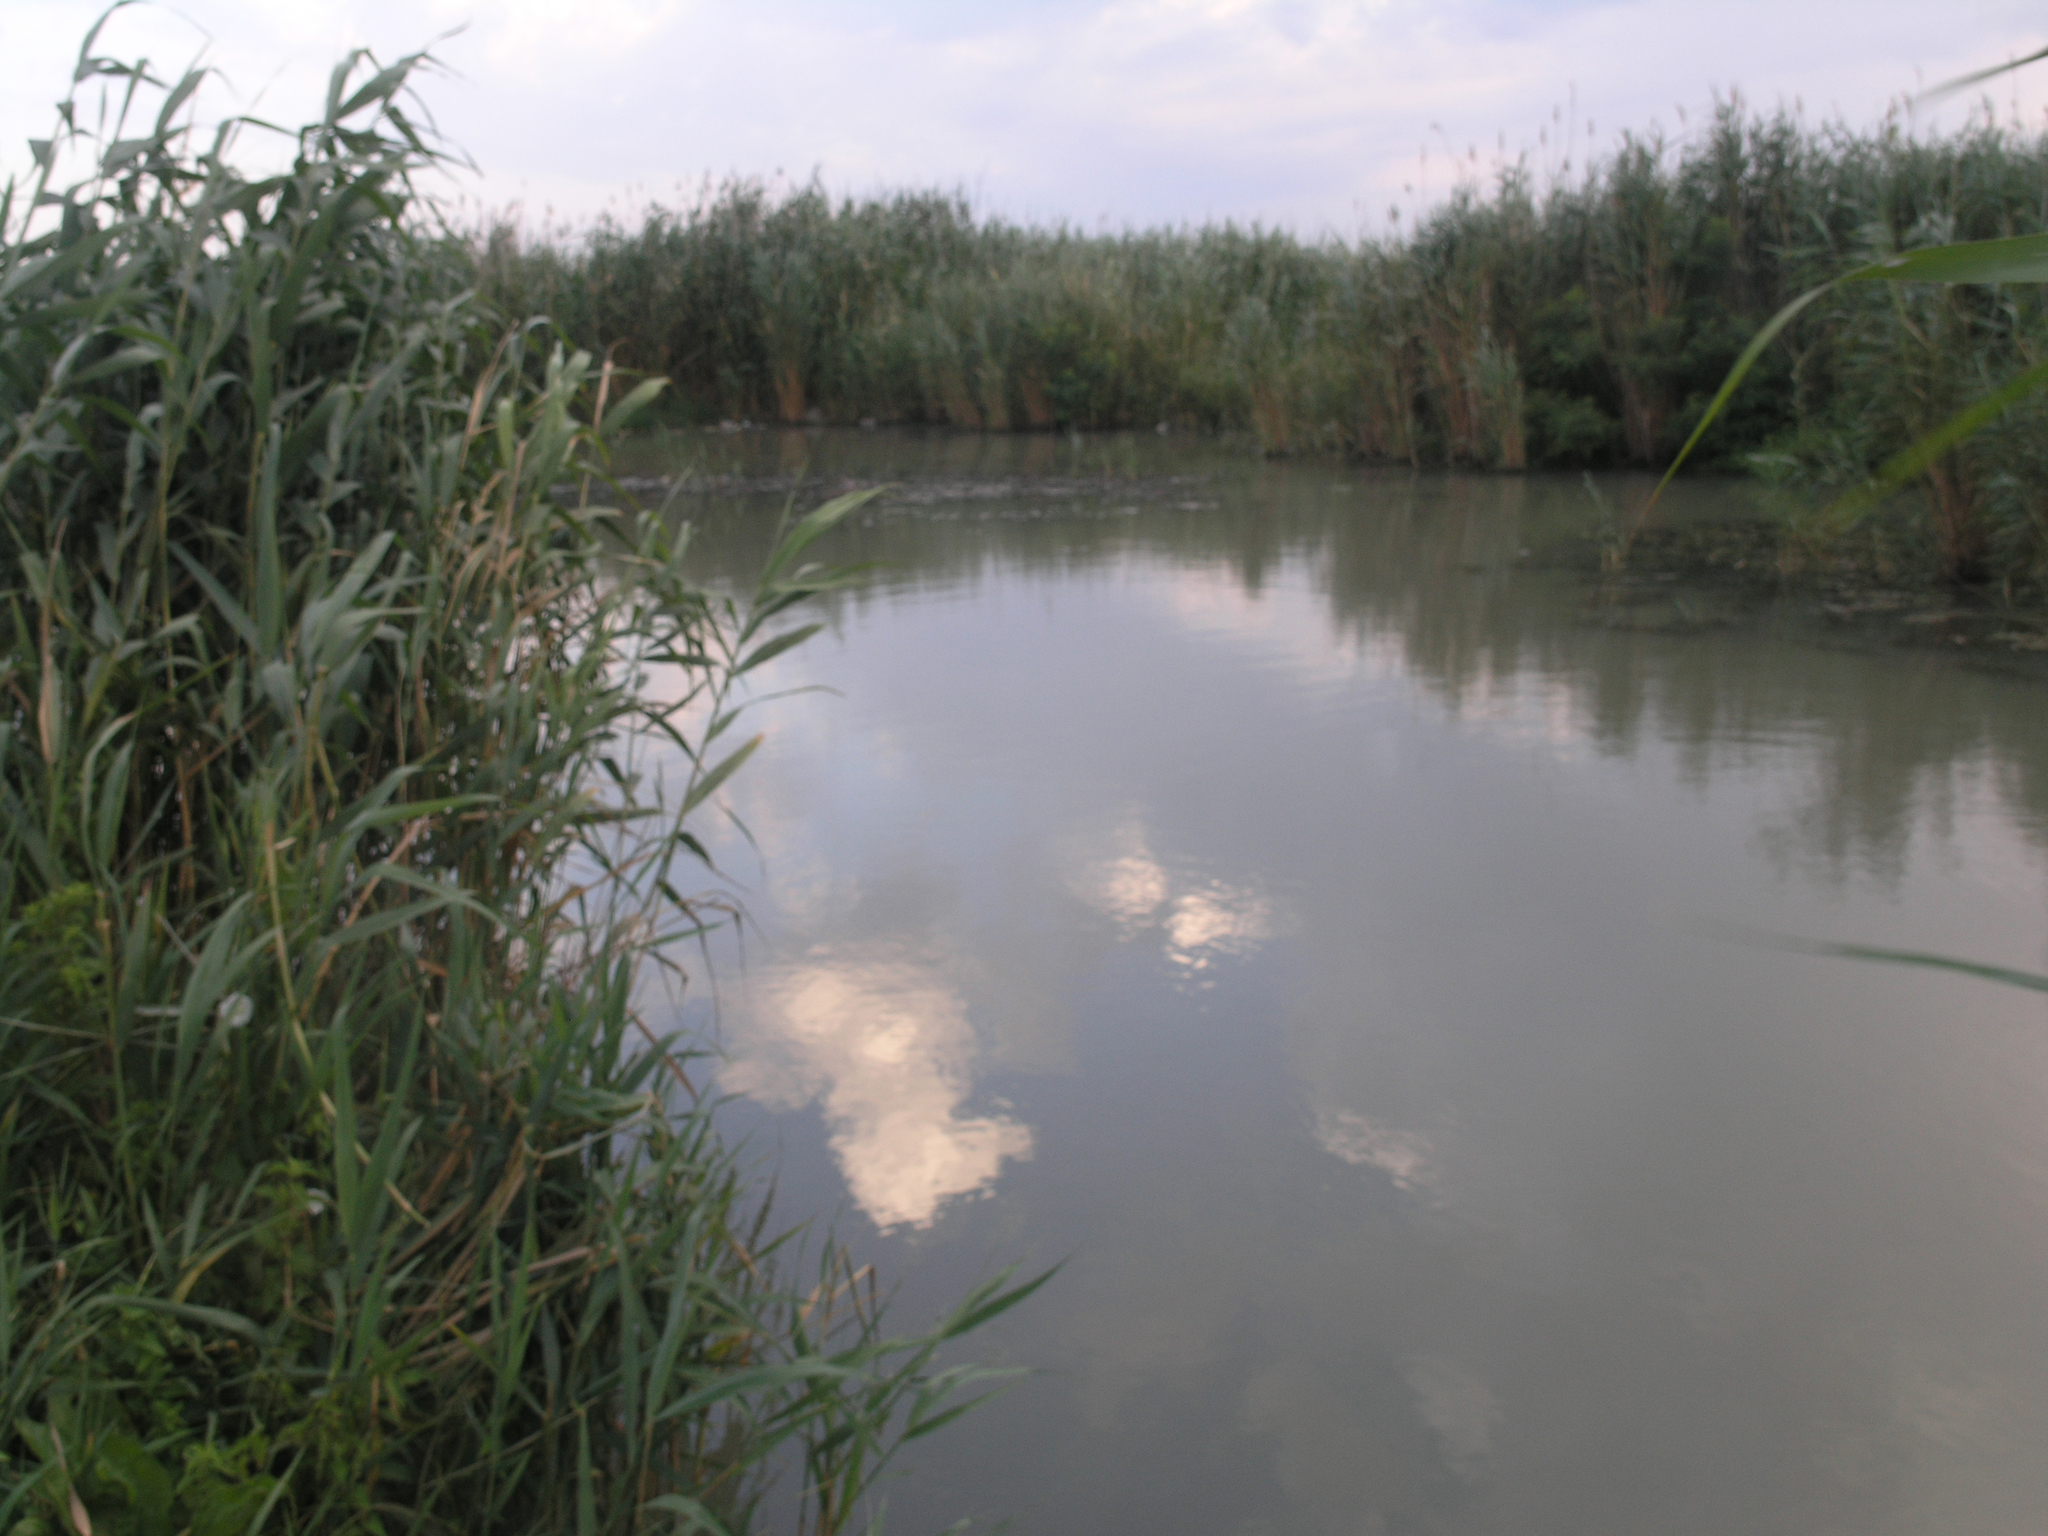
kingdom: Plantae
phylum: Tracheophyta
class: Liliopsida
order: Poales
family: Poaceae
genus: Phragmites
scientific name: Phragmites australis
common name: Common reed
